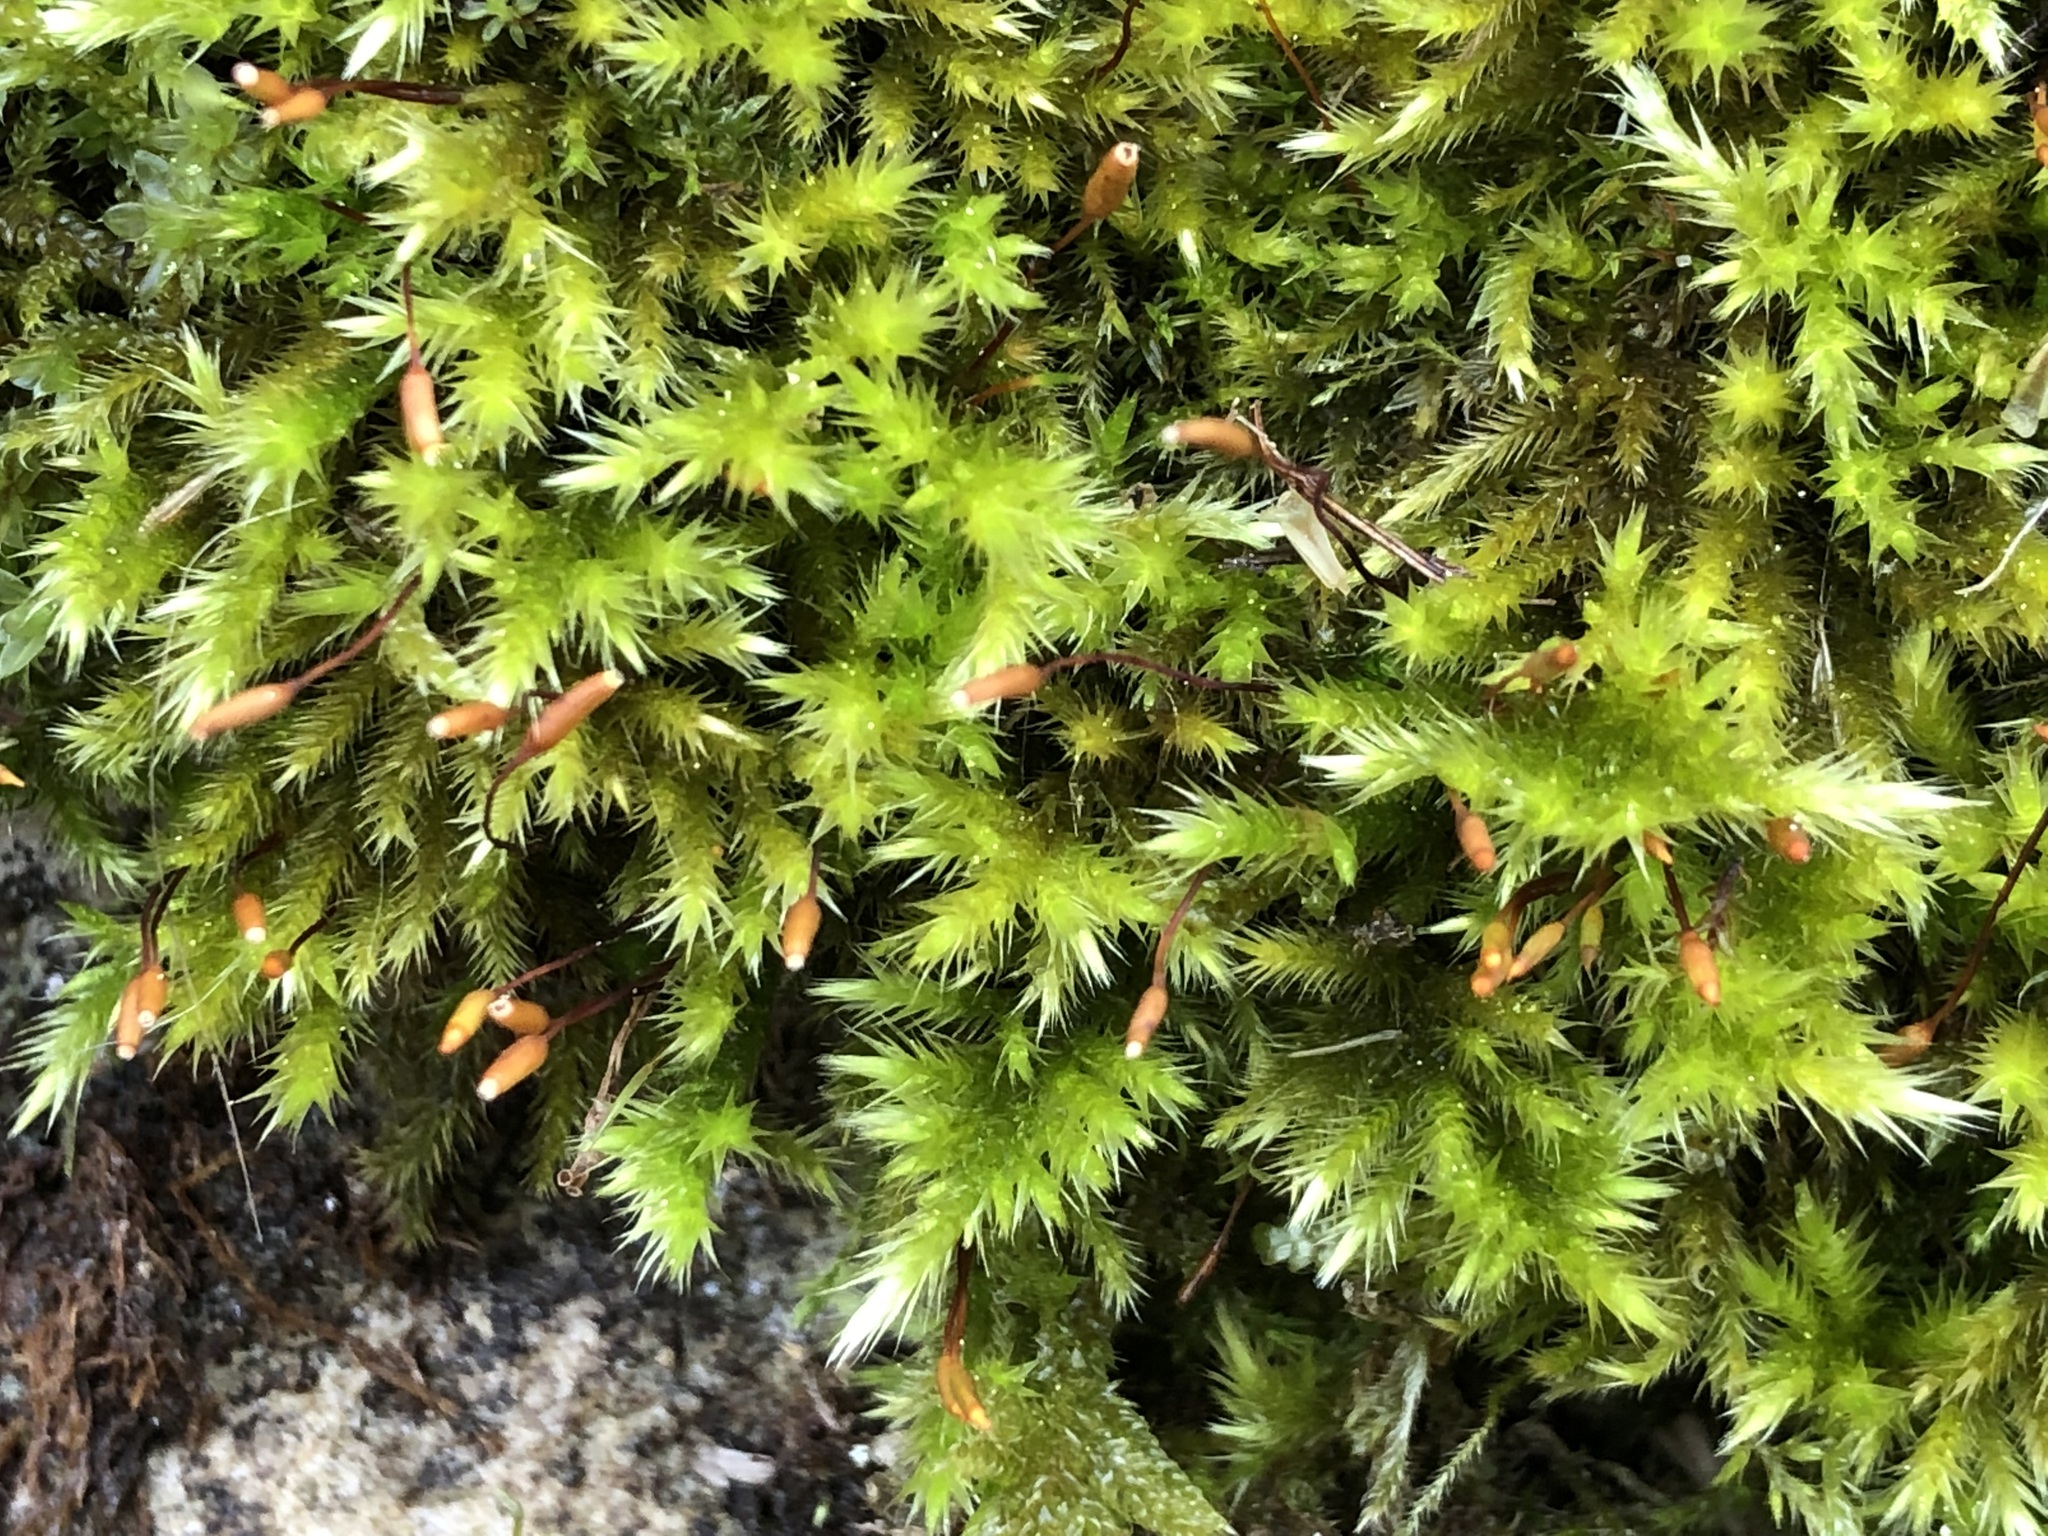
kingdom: Plantae
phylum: Bryophyta
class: Bryopsida
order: Hypnales
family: Brachytheciaceae
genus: Homalothecium
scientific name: Homalothecium sericeum
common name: Silky wall feather-moss
